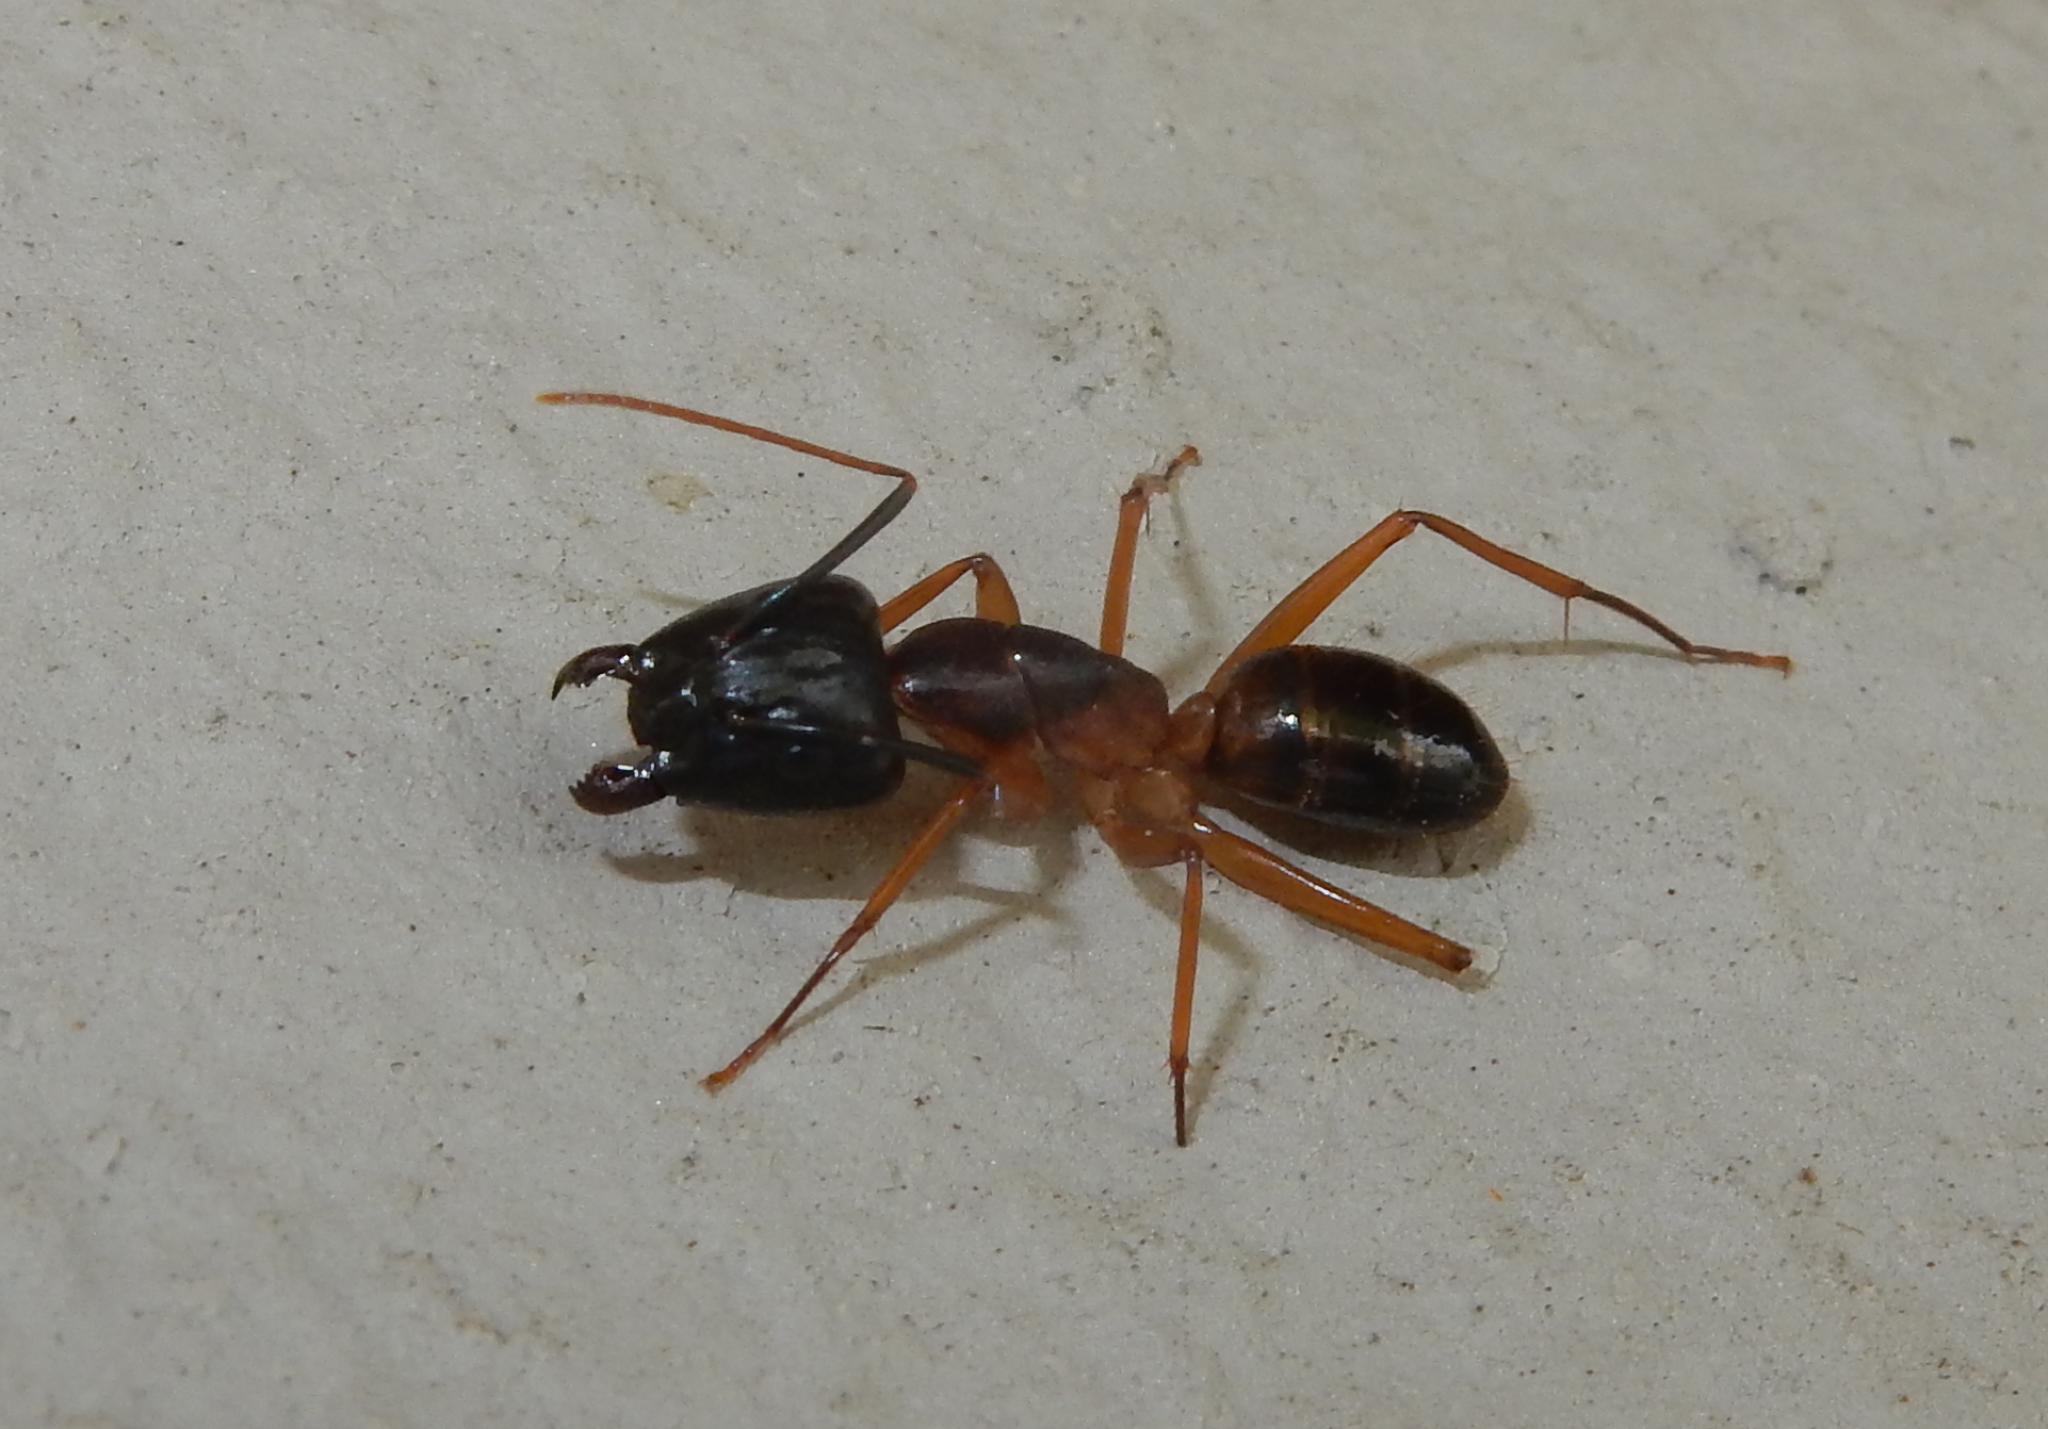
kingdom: Animalia
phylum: Arthropoda
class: Insecta
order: Hymenoptera
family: Formicidae
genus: Camponotus
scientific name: Camponotus baynei
